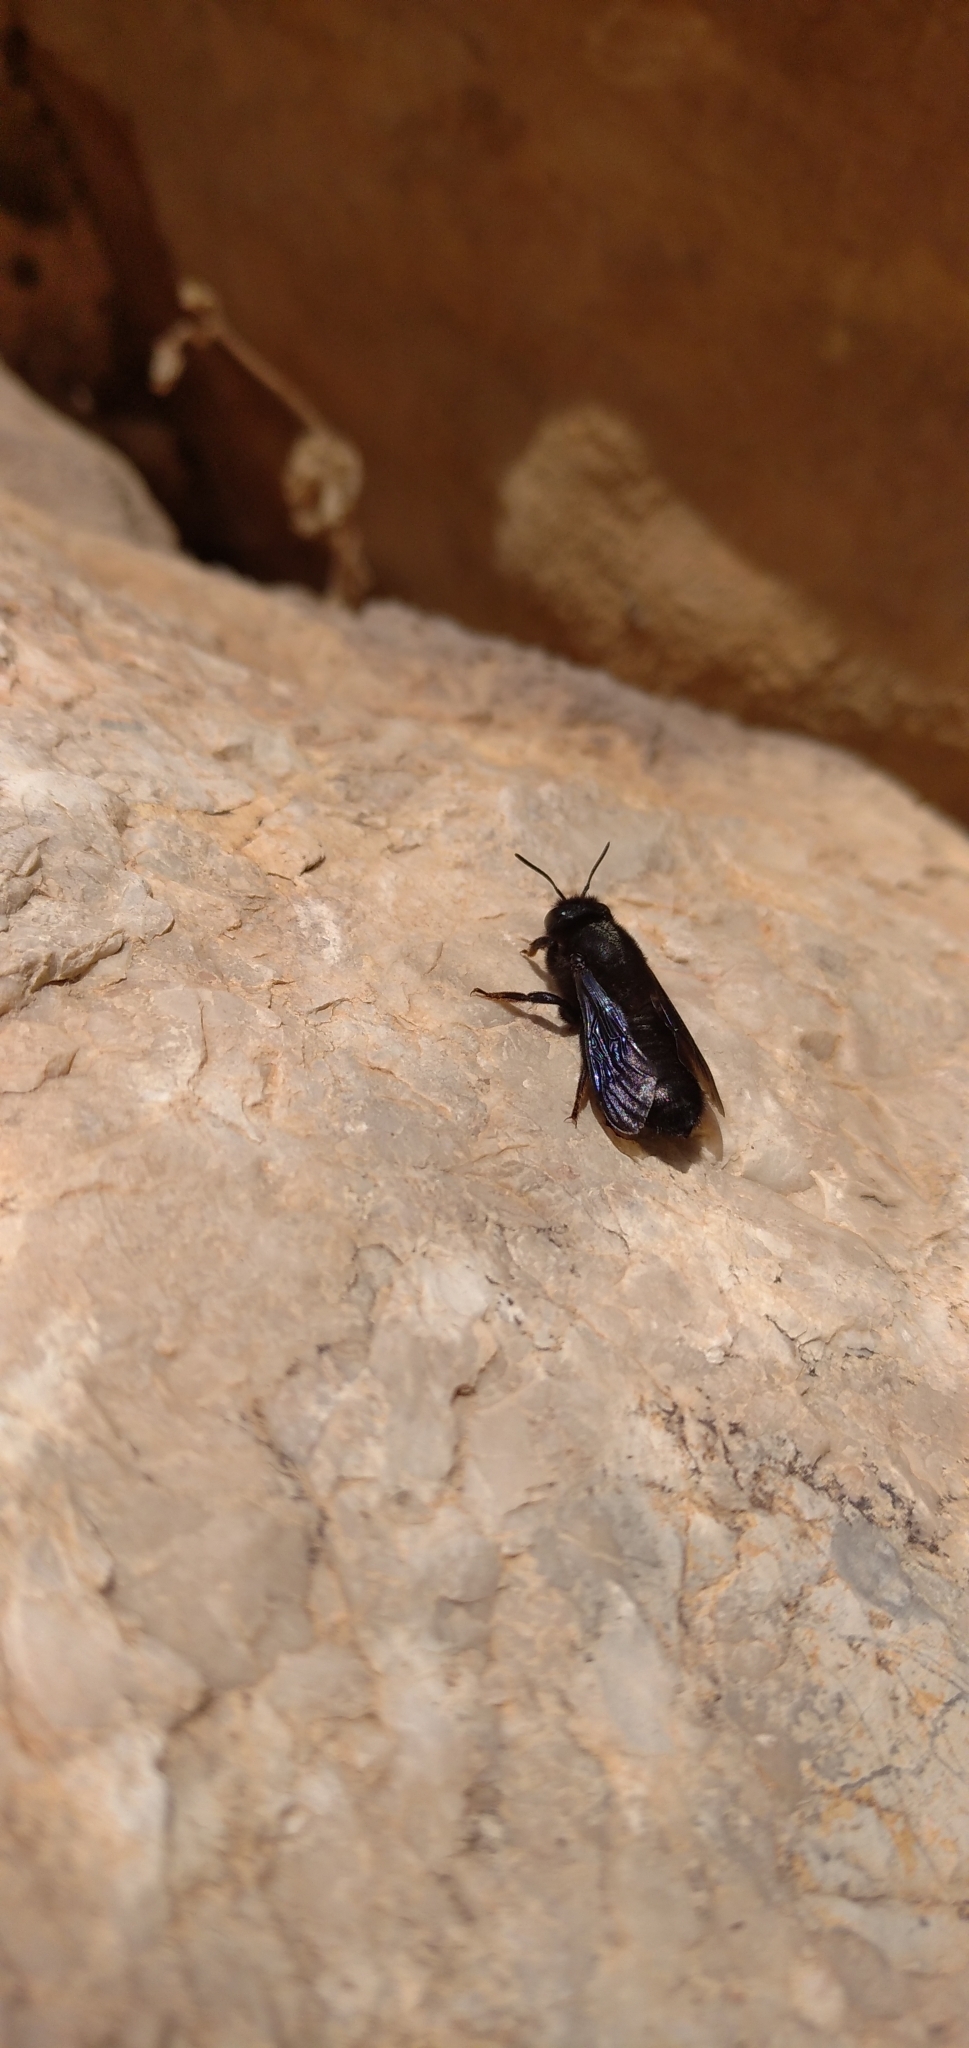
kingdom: Animalia
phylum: Arthropoda
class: Insecta
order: Hymenoptera
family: Megachilidae
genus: Megachile
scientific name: Megachile parietina
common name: Black mud bee
